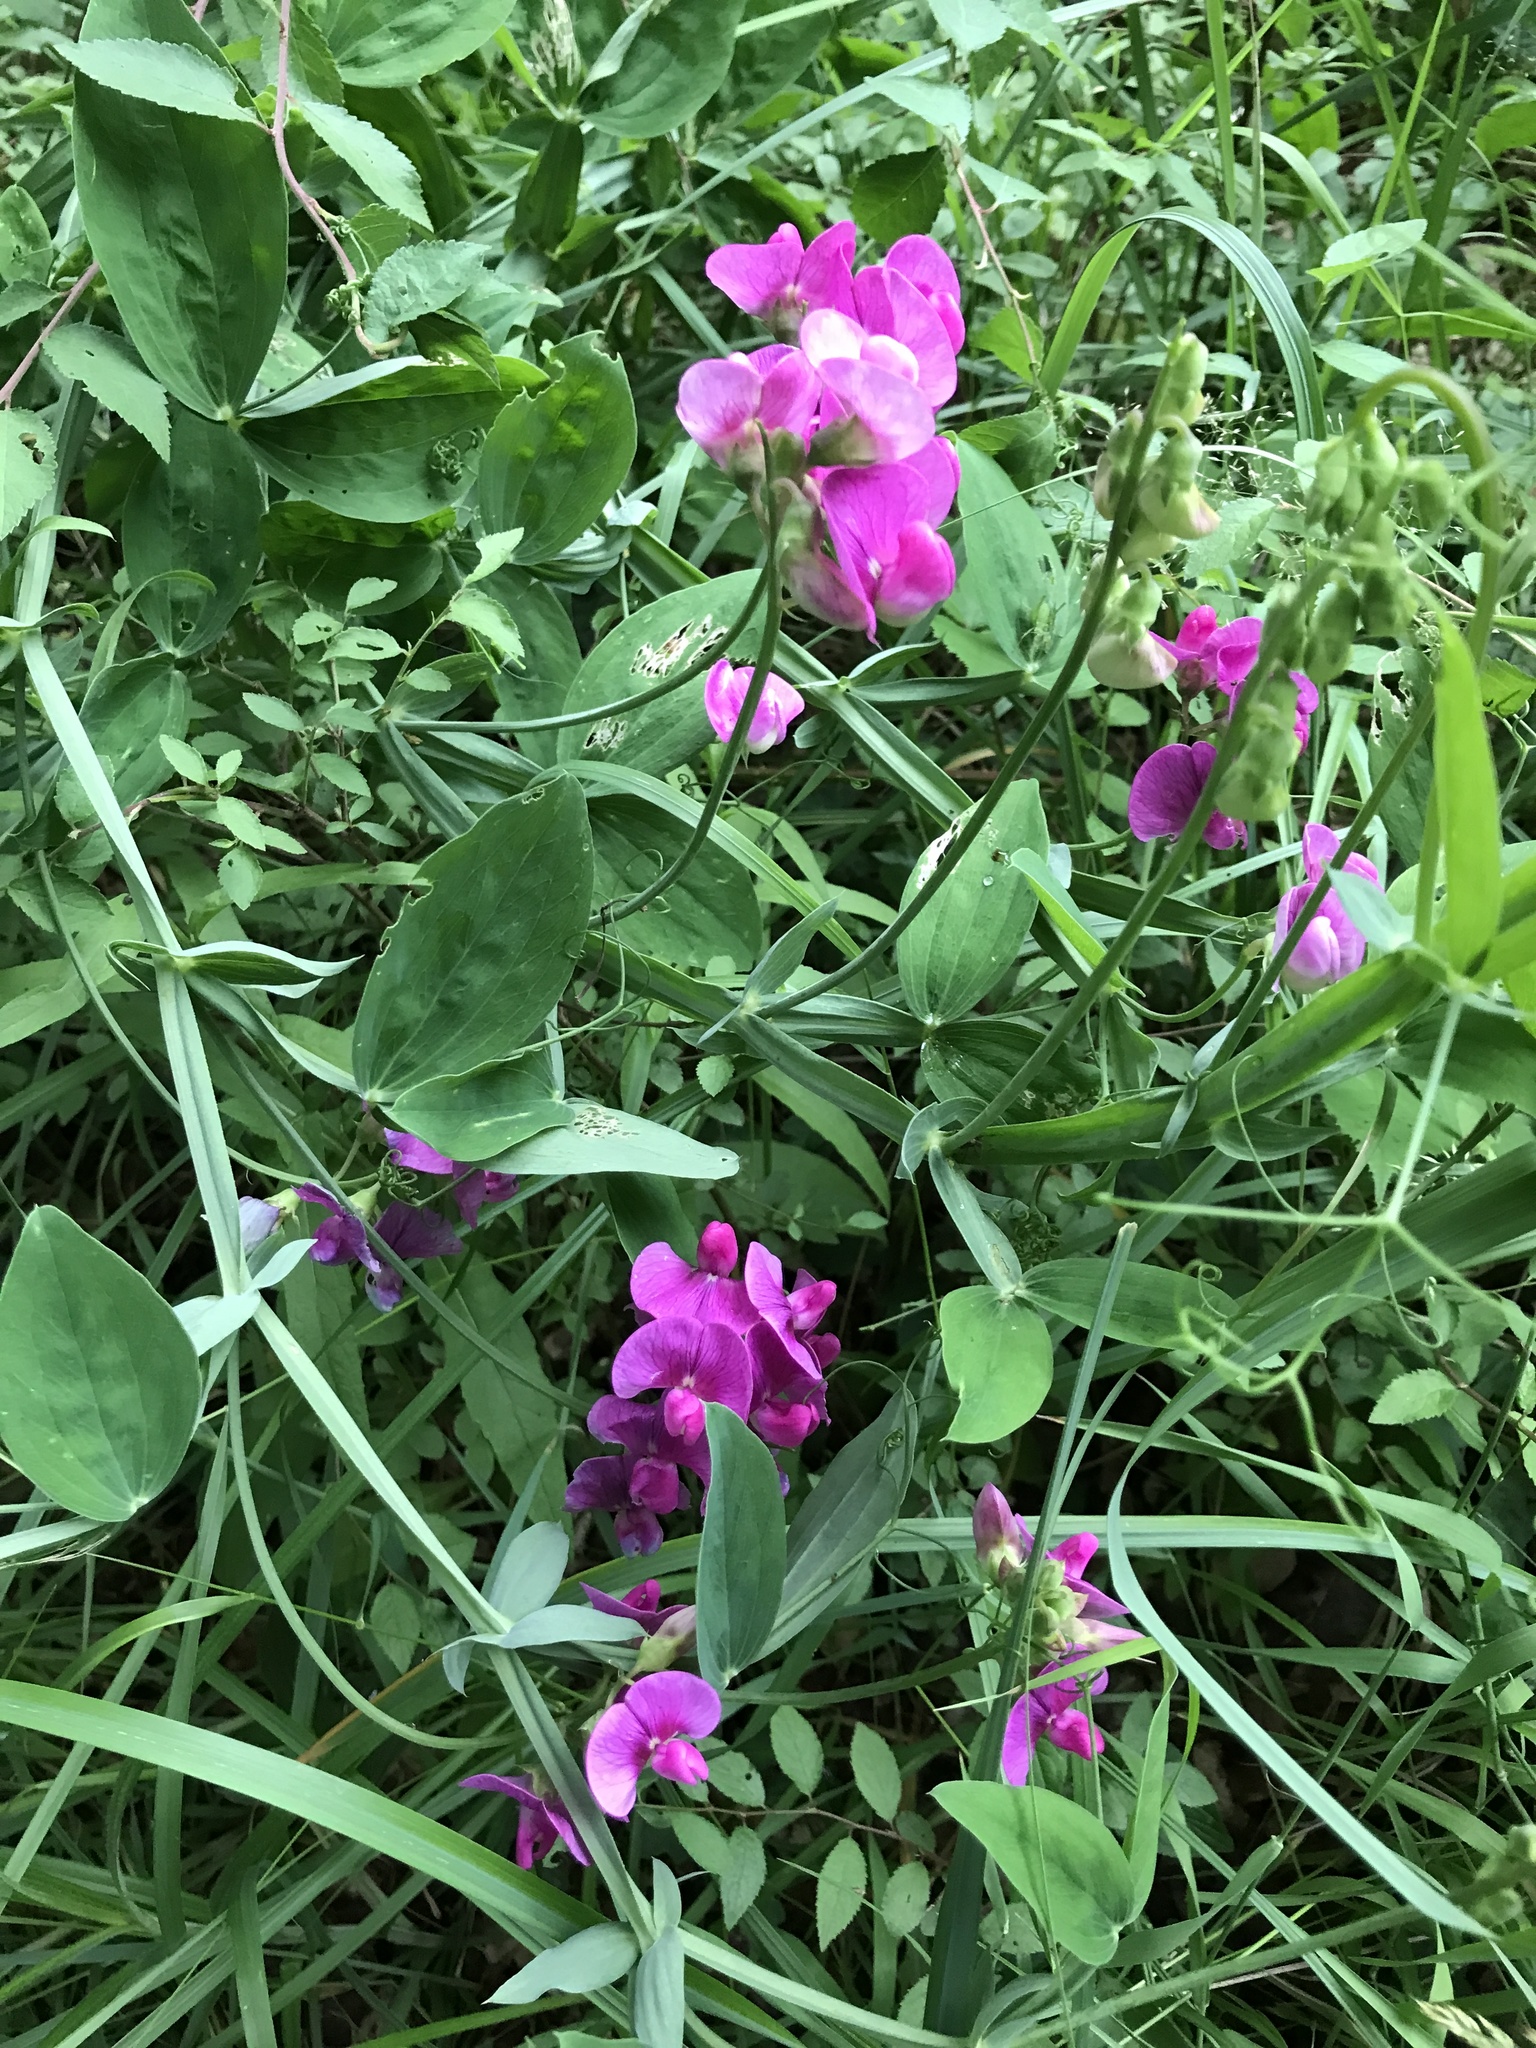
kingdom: Plantae
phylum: Tracheophyta
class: Magnoliopsida
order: Fabales
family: Fabaceae
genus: Lathyrus
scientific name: Lathyrus latifolius
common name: Perennial pea
